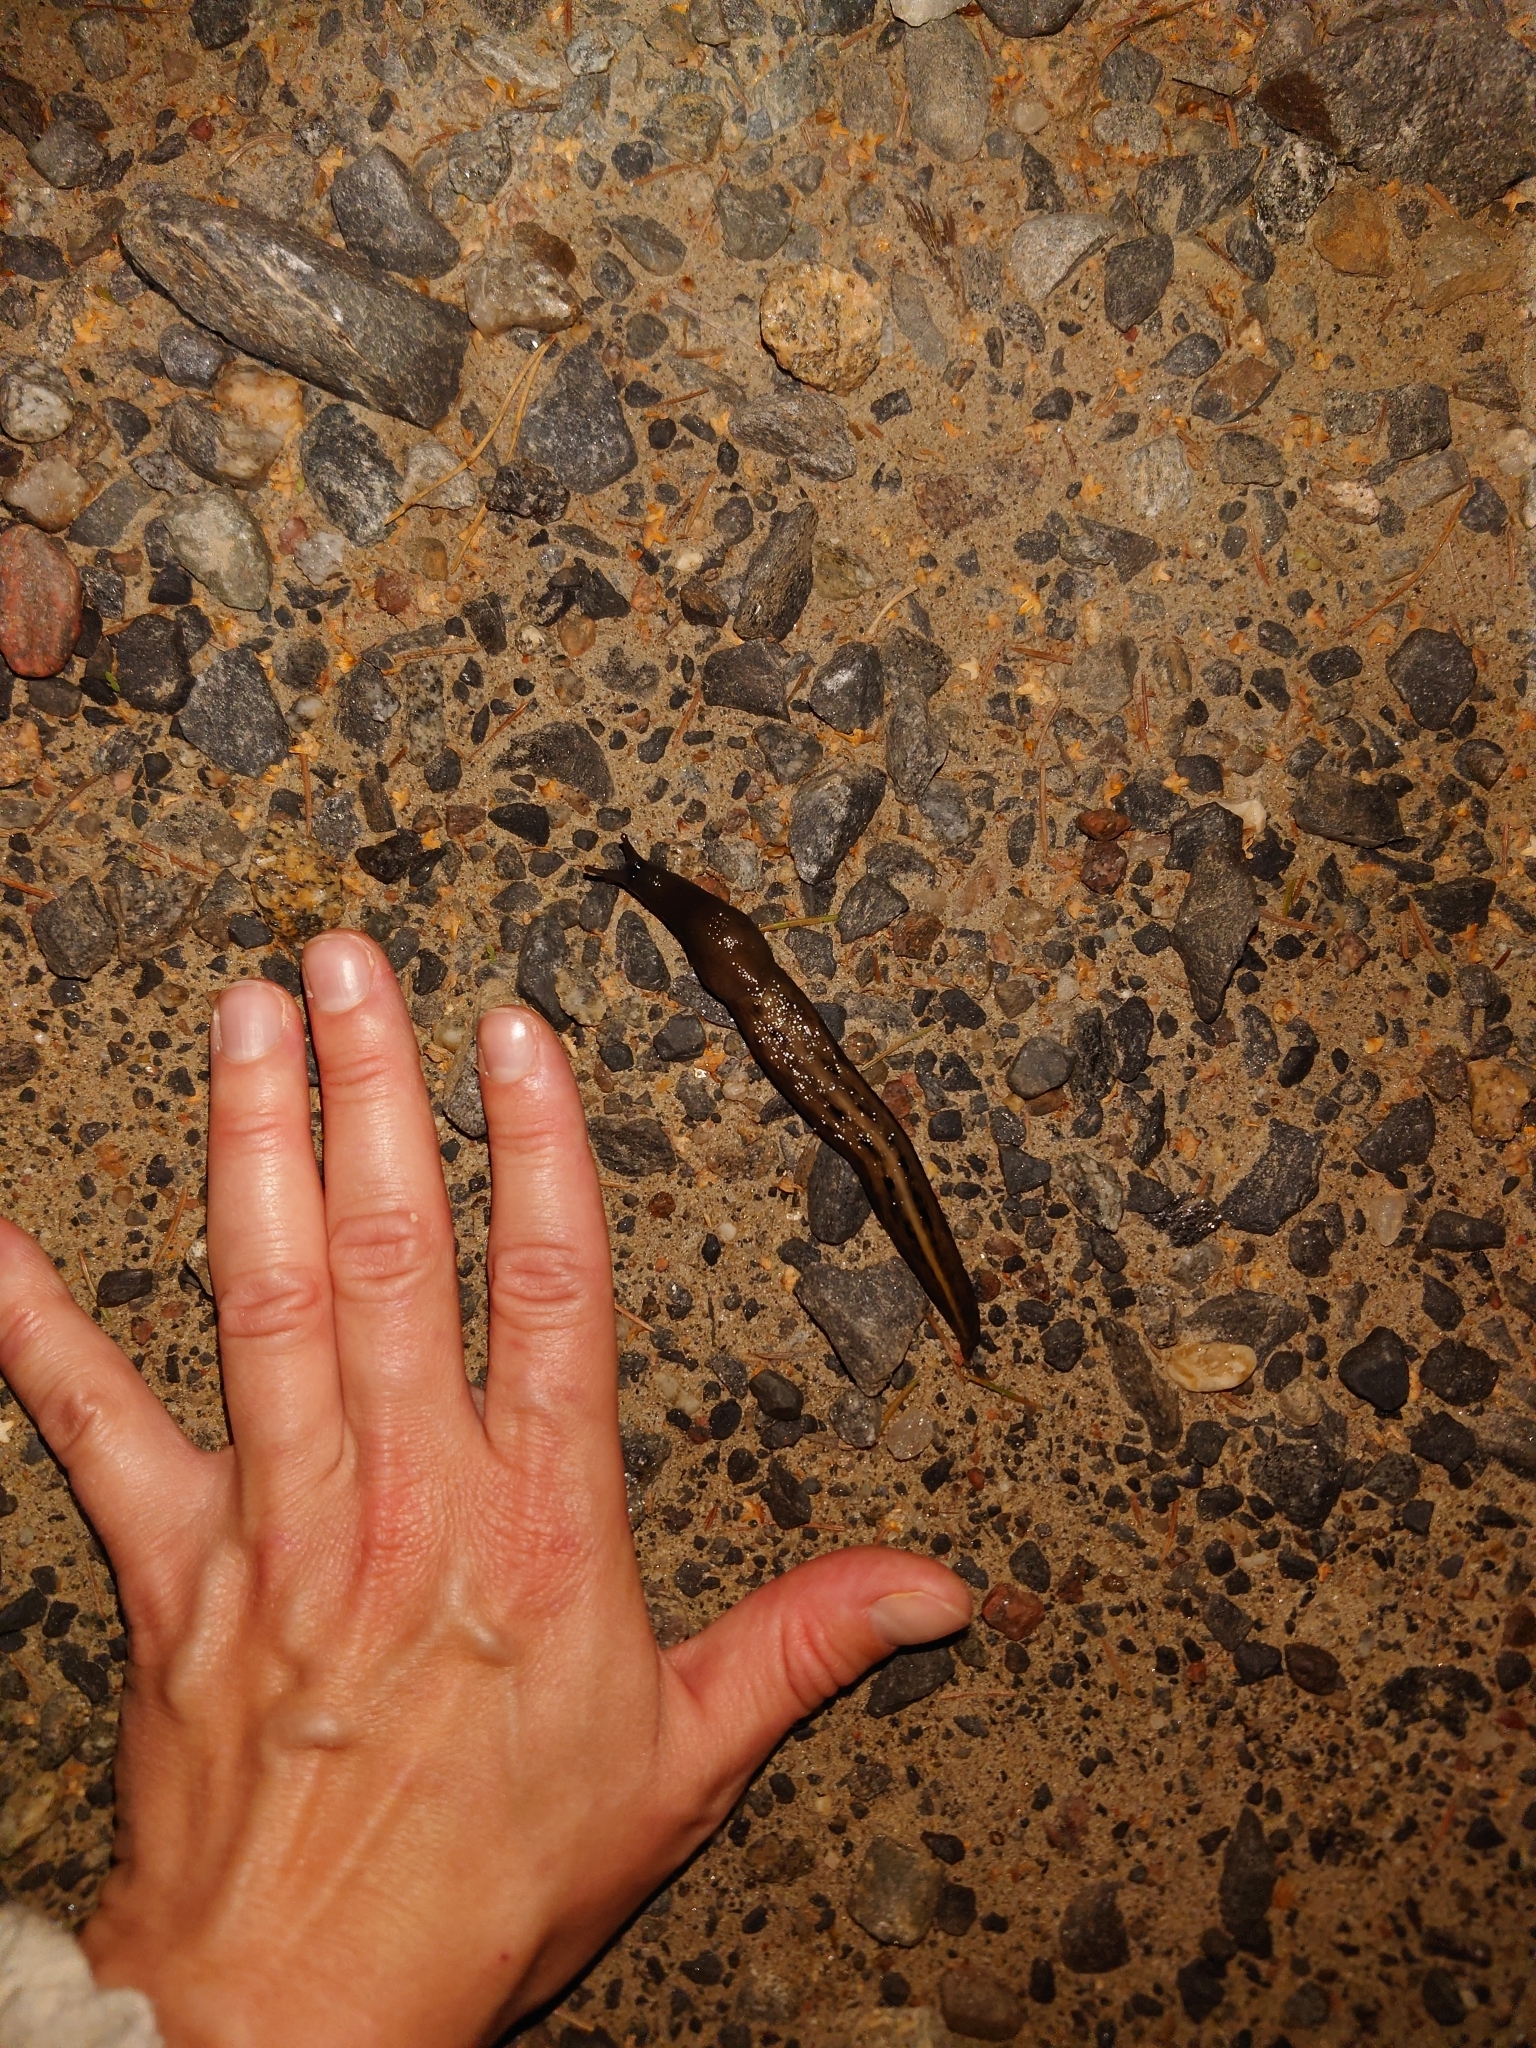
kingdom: Animalia
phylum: Mollusca
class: Gastropoda
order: Stylommatophora
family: Limacidae
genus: Limax
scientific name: Limax cinereoniger
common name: Ash-black slug
